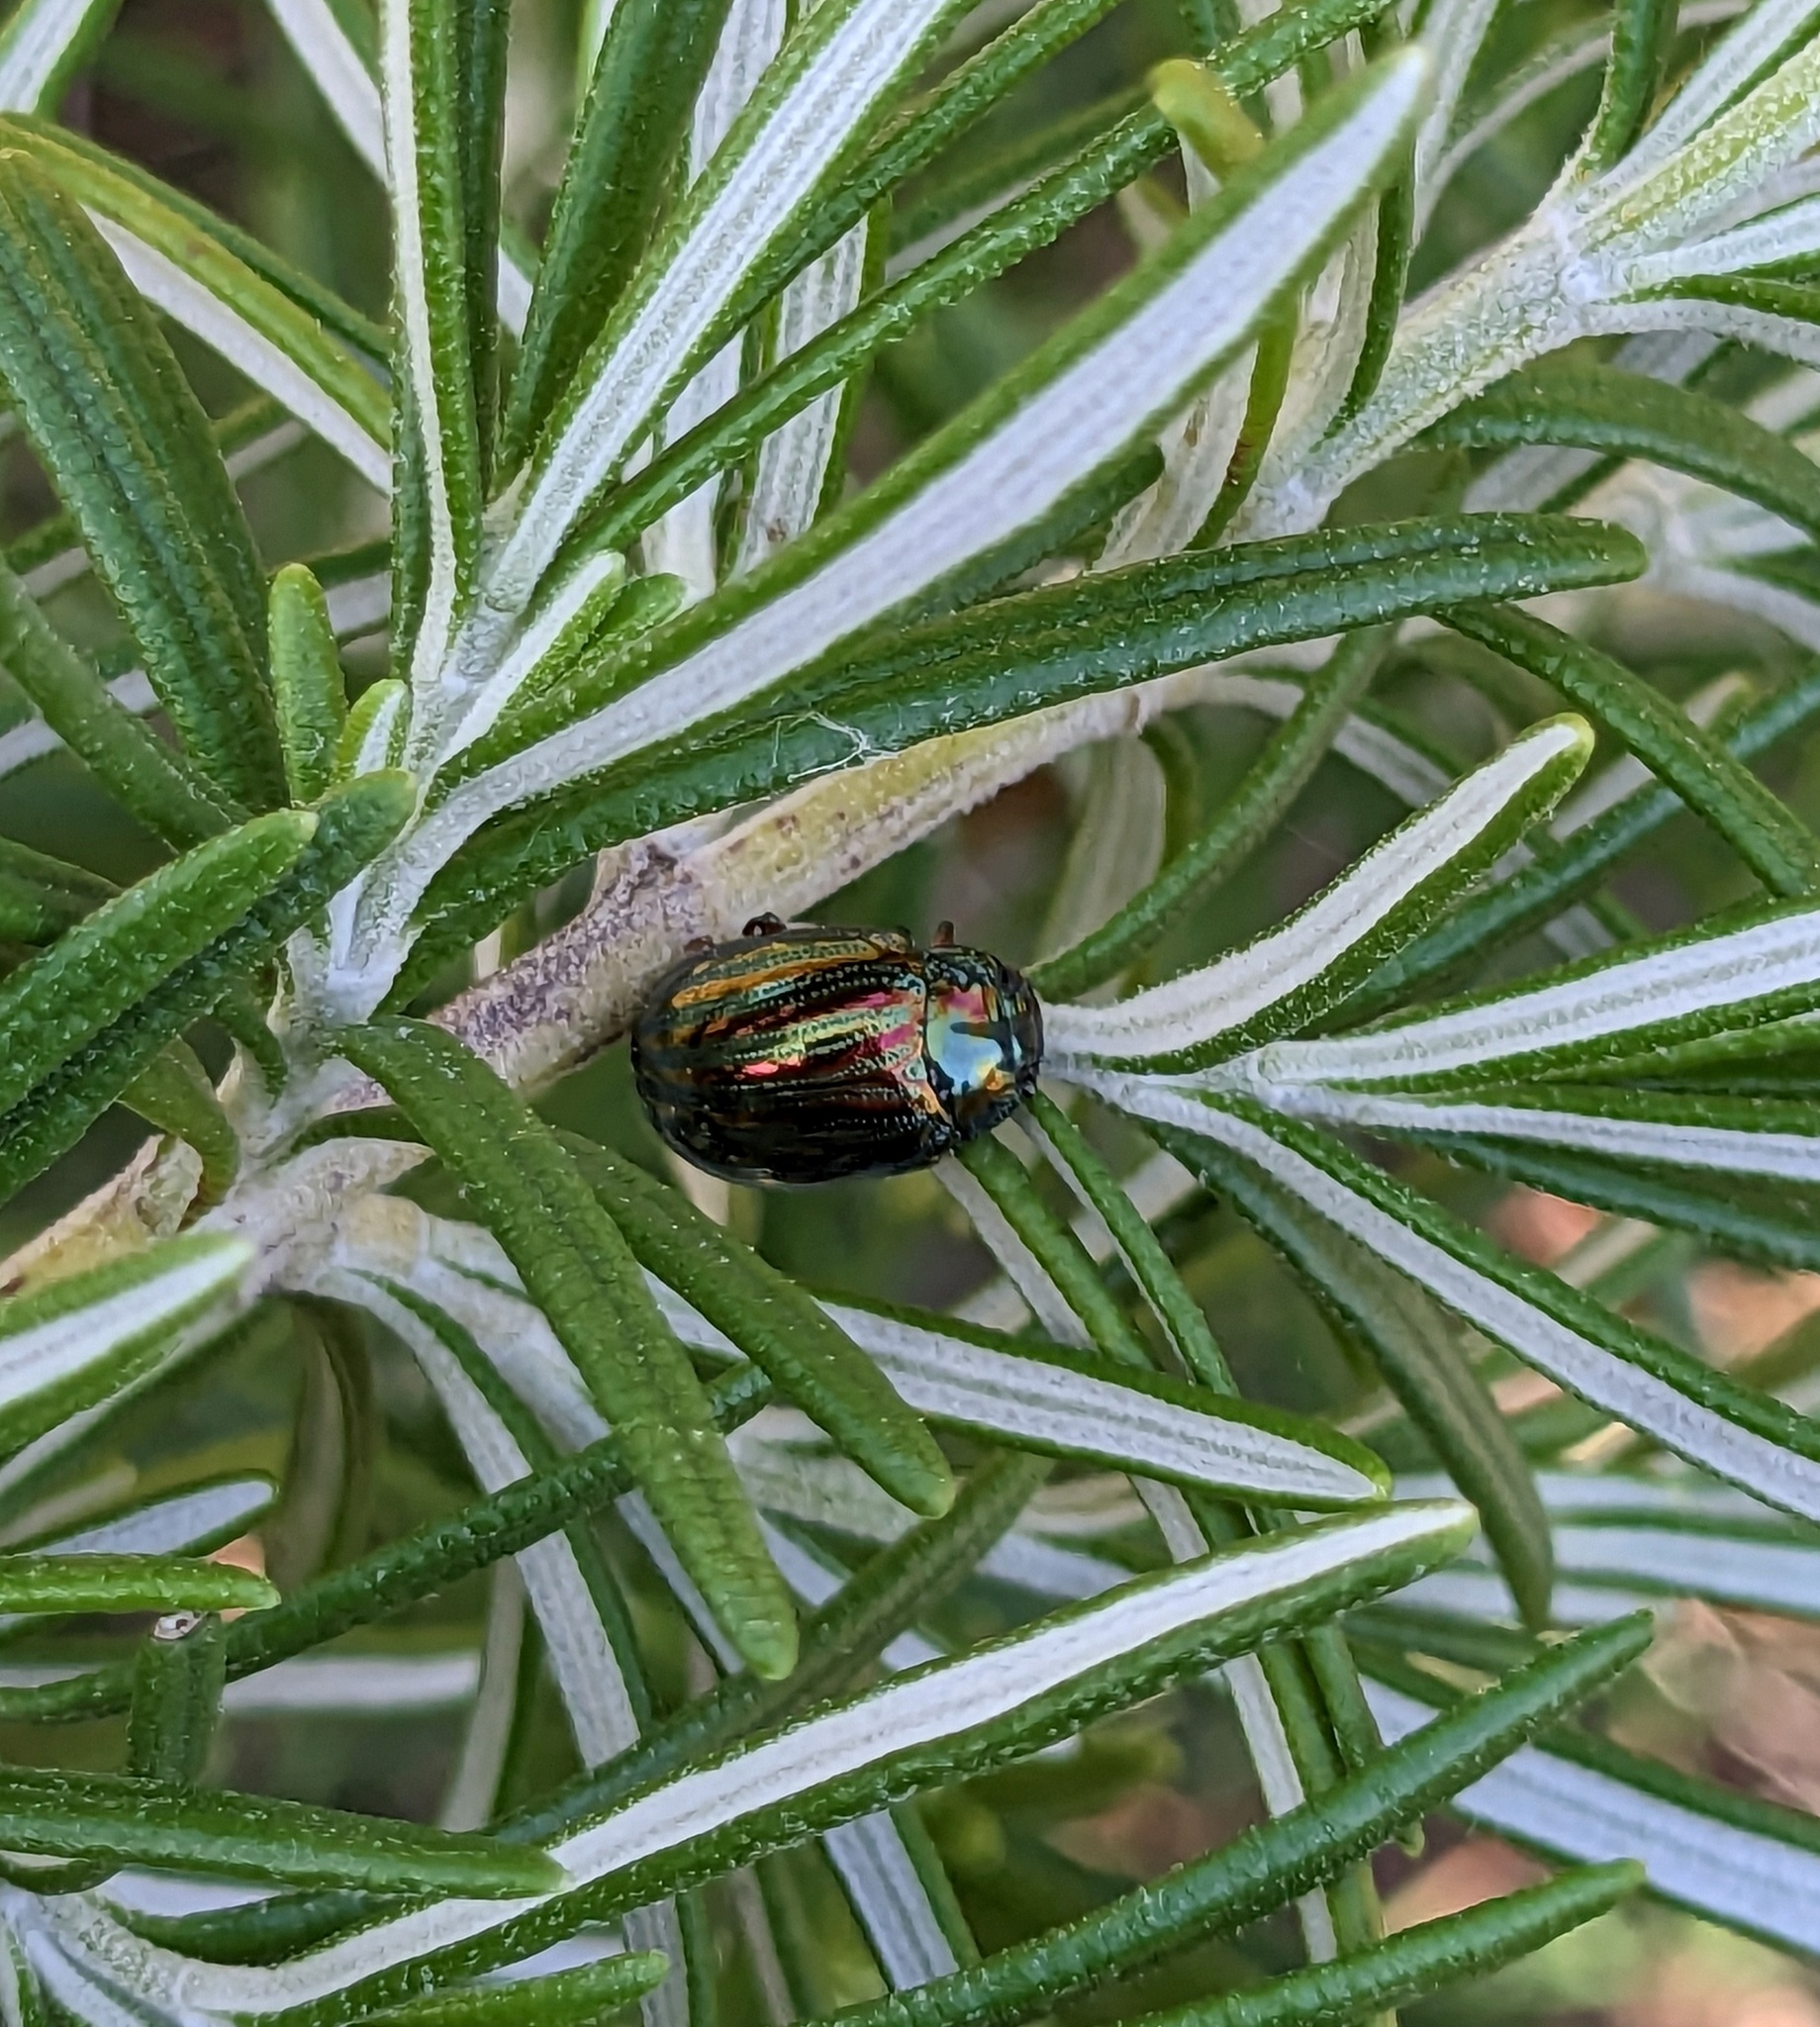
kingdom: Animalia
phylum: Arthropoda
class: Insecta
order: Coleoptera
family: Chrysomelidae
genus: Chrysolina
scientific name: Chrysolina americana
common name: Rosemary beetle
